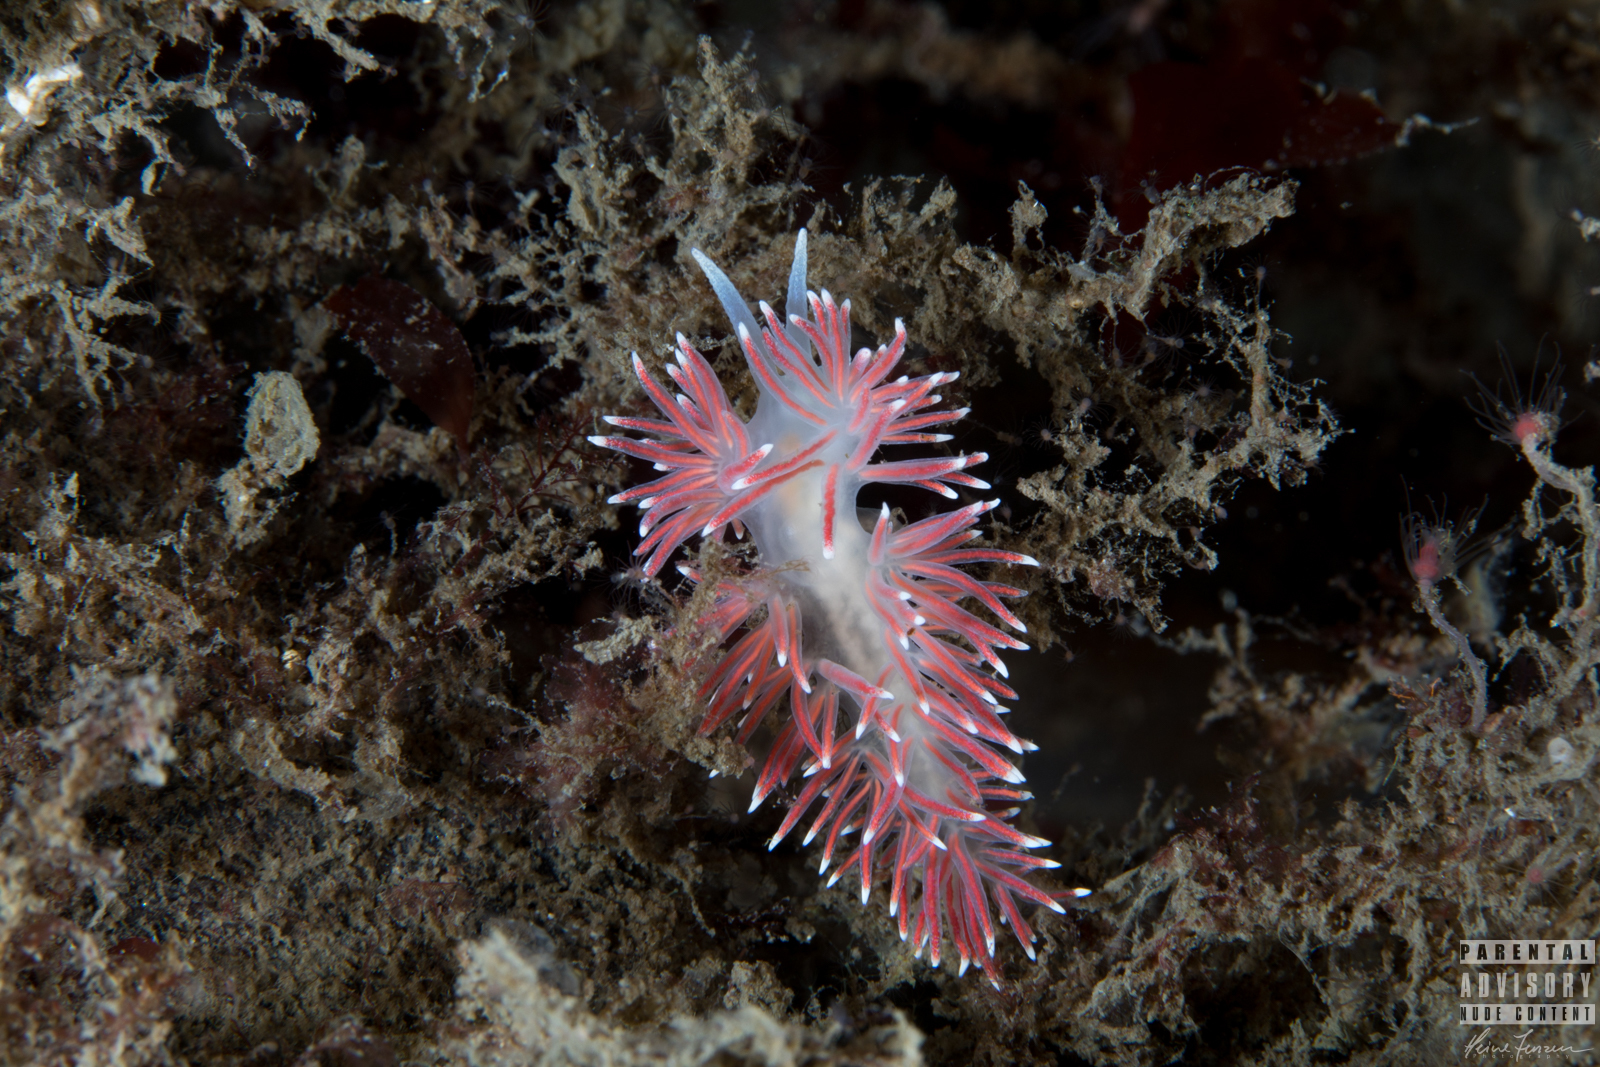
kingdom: Animalia
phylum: Mollusca
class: Gastropoda
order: Nudibranchia
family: Flabellinidae
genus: Carronella
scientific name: Carronella pellucida
